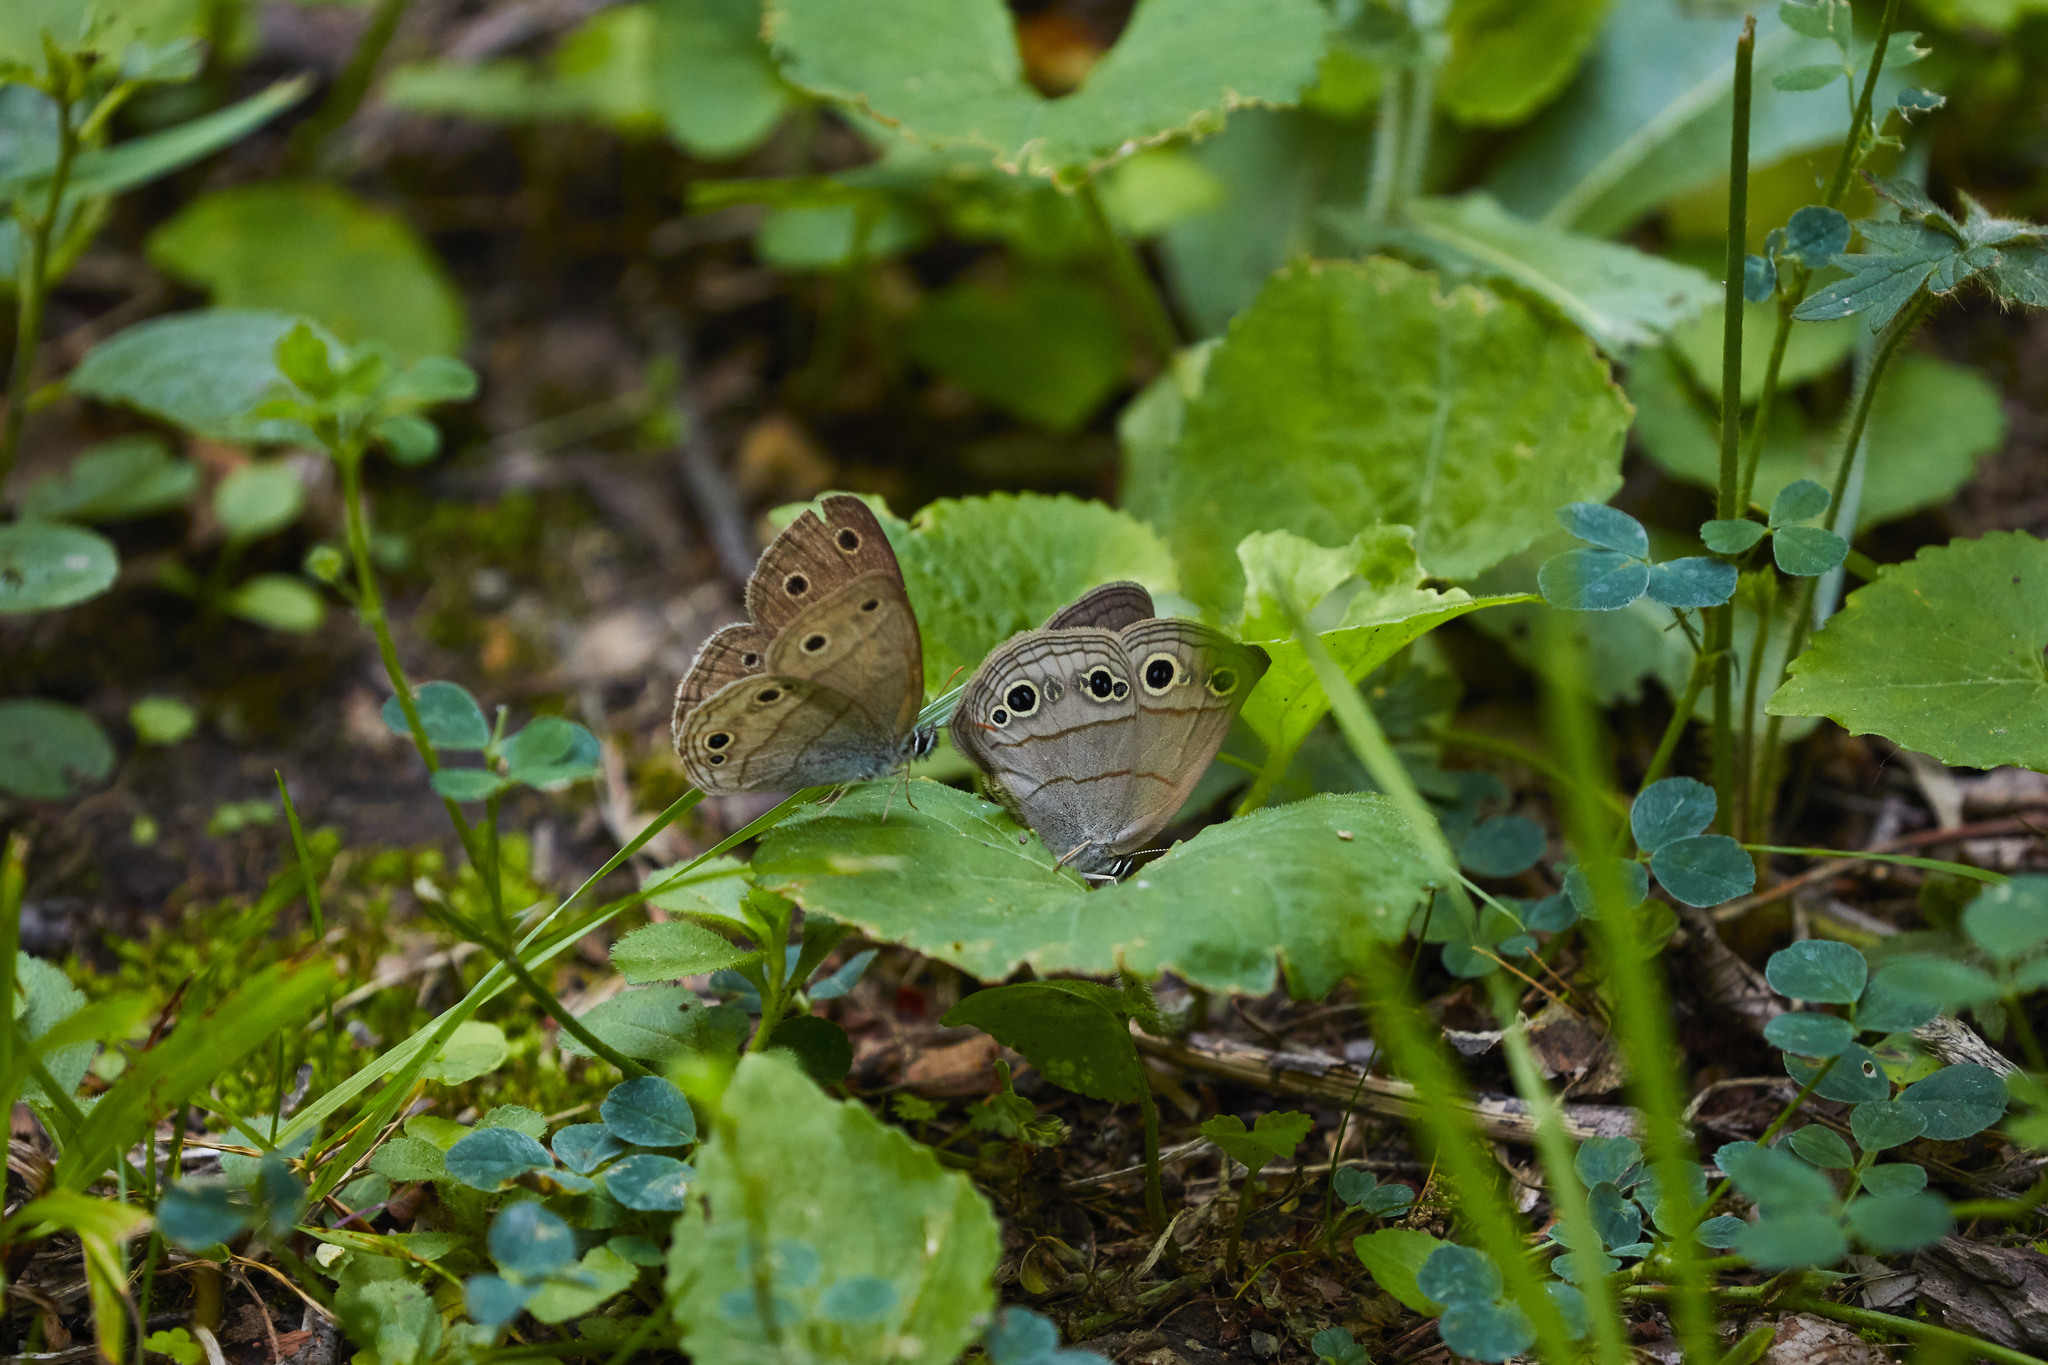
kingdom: Animalia
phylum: Arthropoda
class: Insecta
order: Lepidoptera
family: Nymphalidae
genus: Euptychia
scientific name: Euptychia cymela
